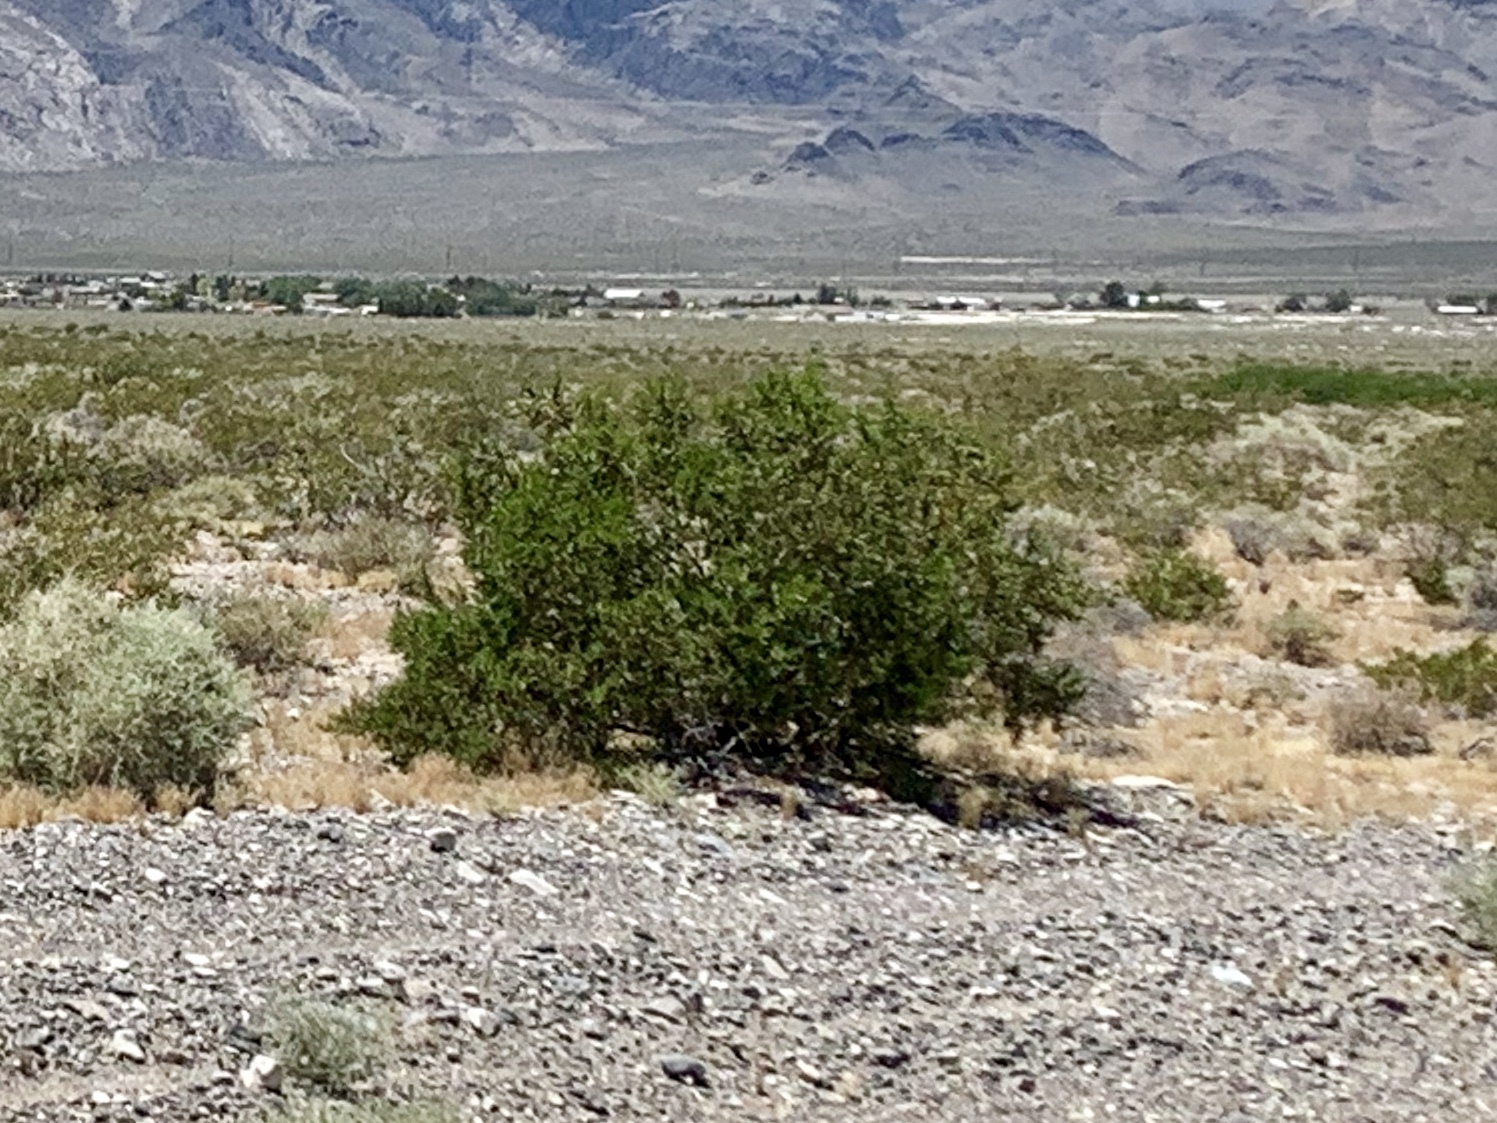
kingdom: Plantae
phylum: Tracheophyta
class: Magnoliopsida
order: Zygophyllales
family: Zygophyllaceae
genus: Larrea
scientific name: Larrea tridentata
